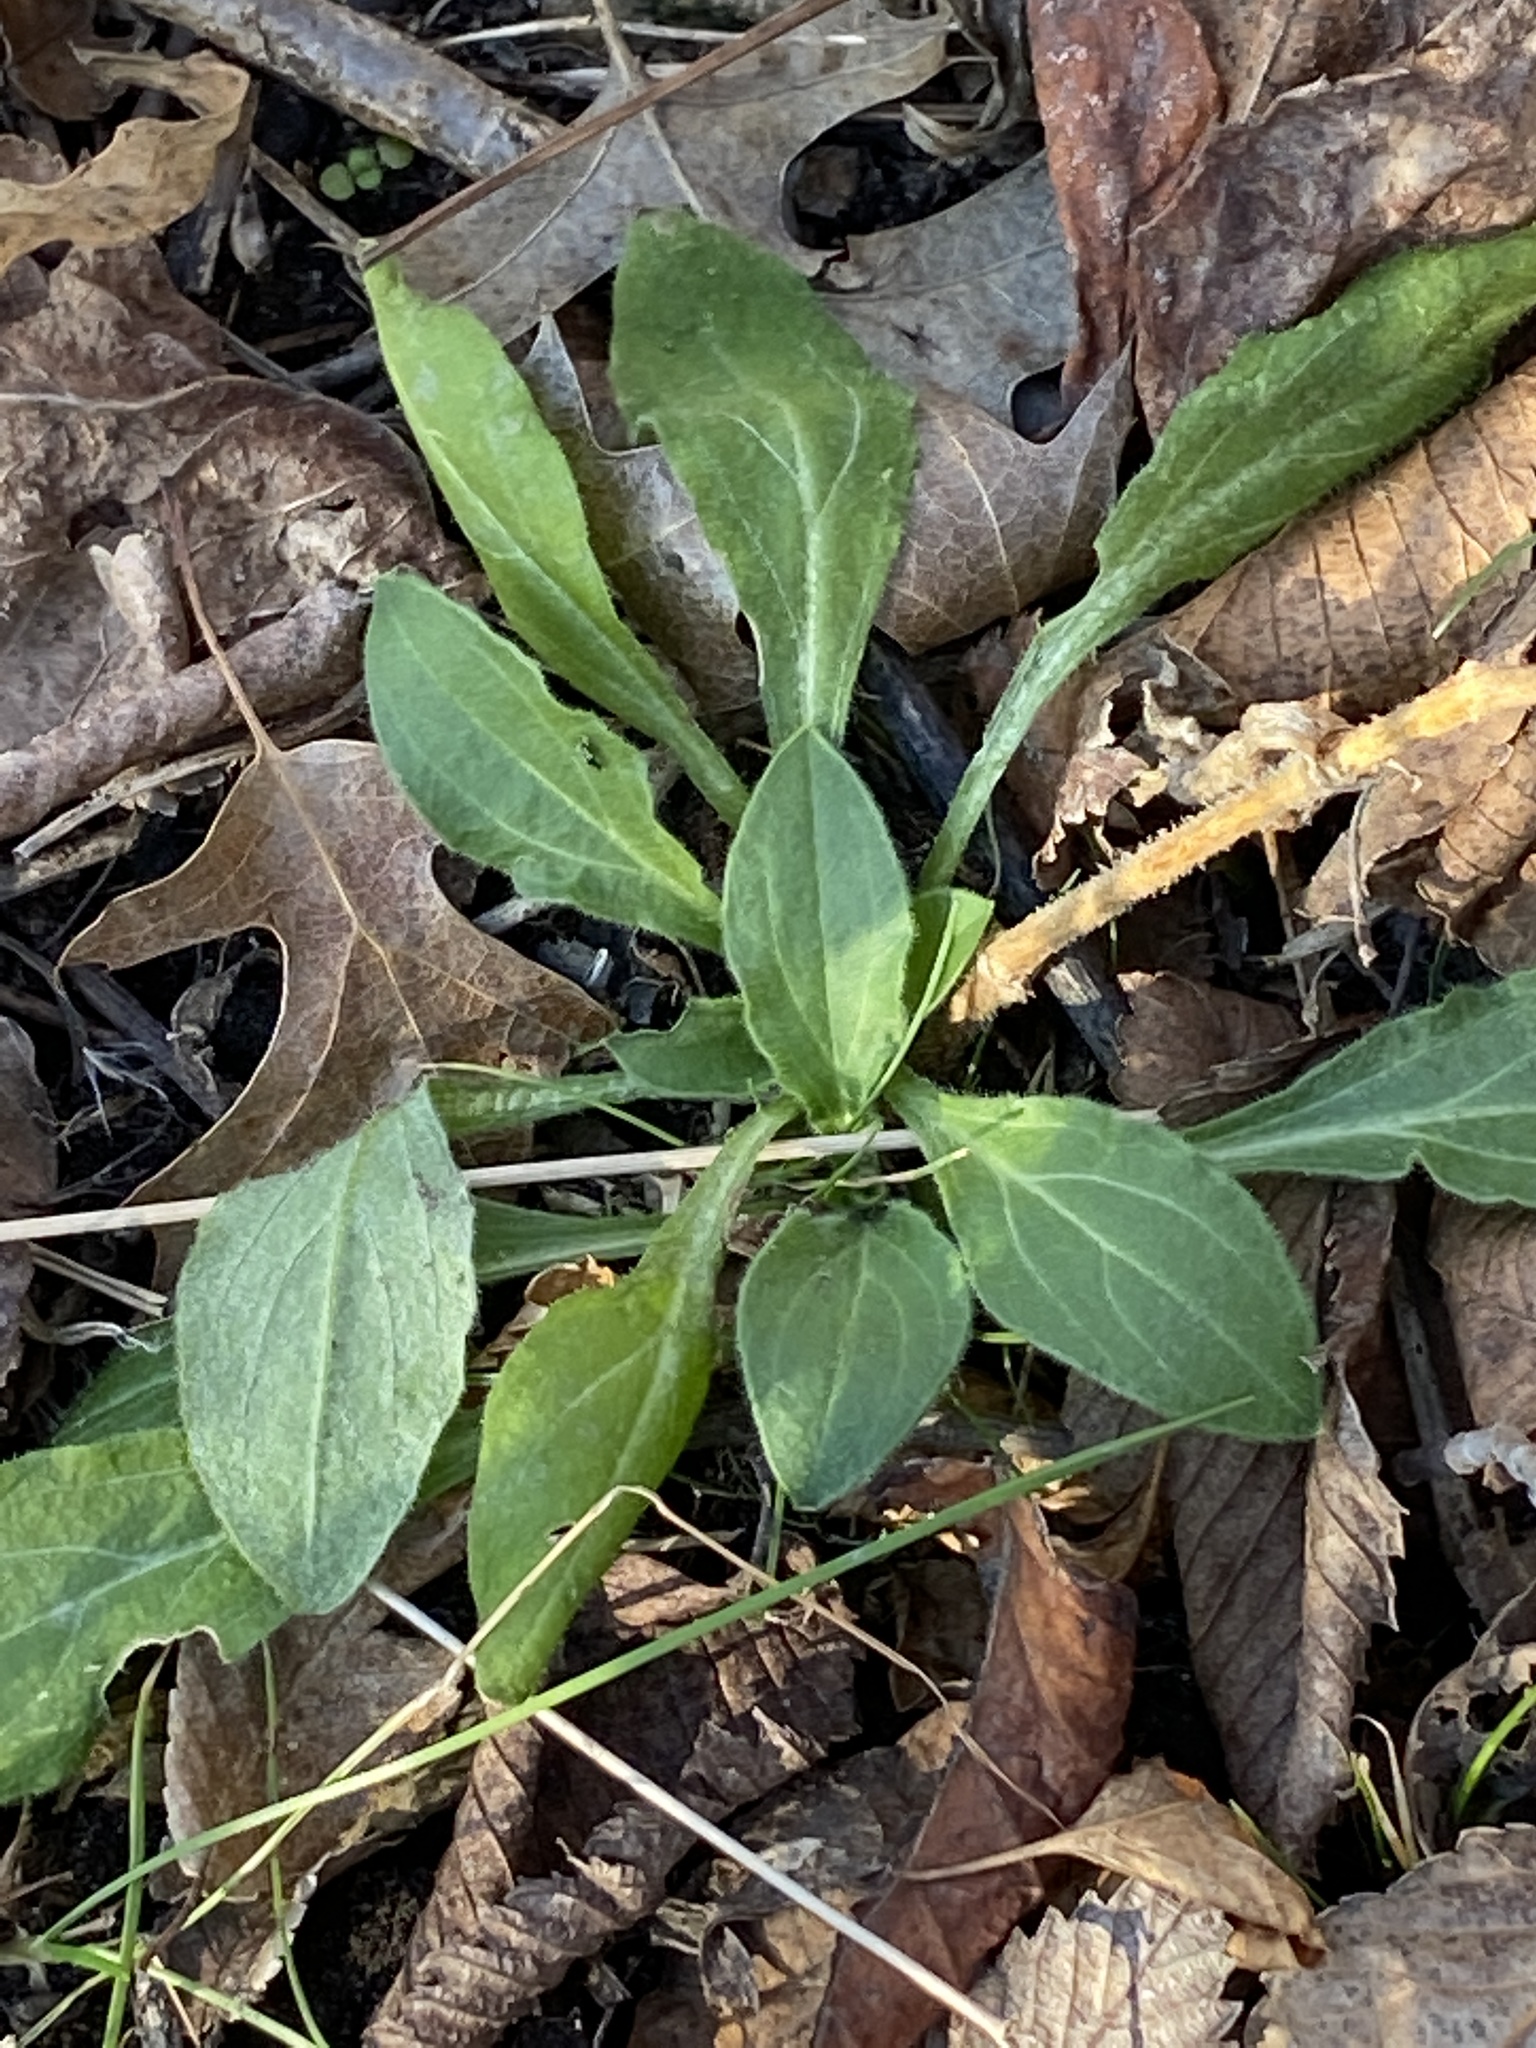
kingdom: Plantae
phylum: Tracheophyta
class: Magnoliopsida
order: Caryophyllales
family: Caryophyllaceae
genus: Silene
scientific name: Silene latifolia
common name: White campion
